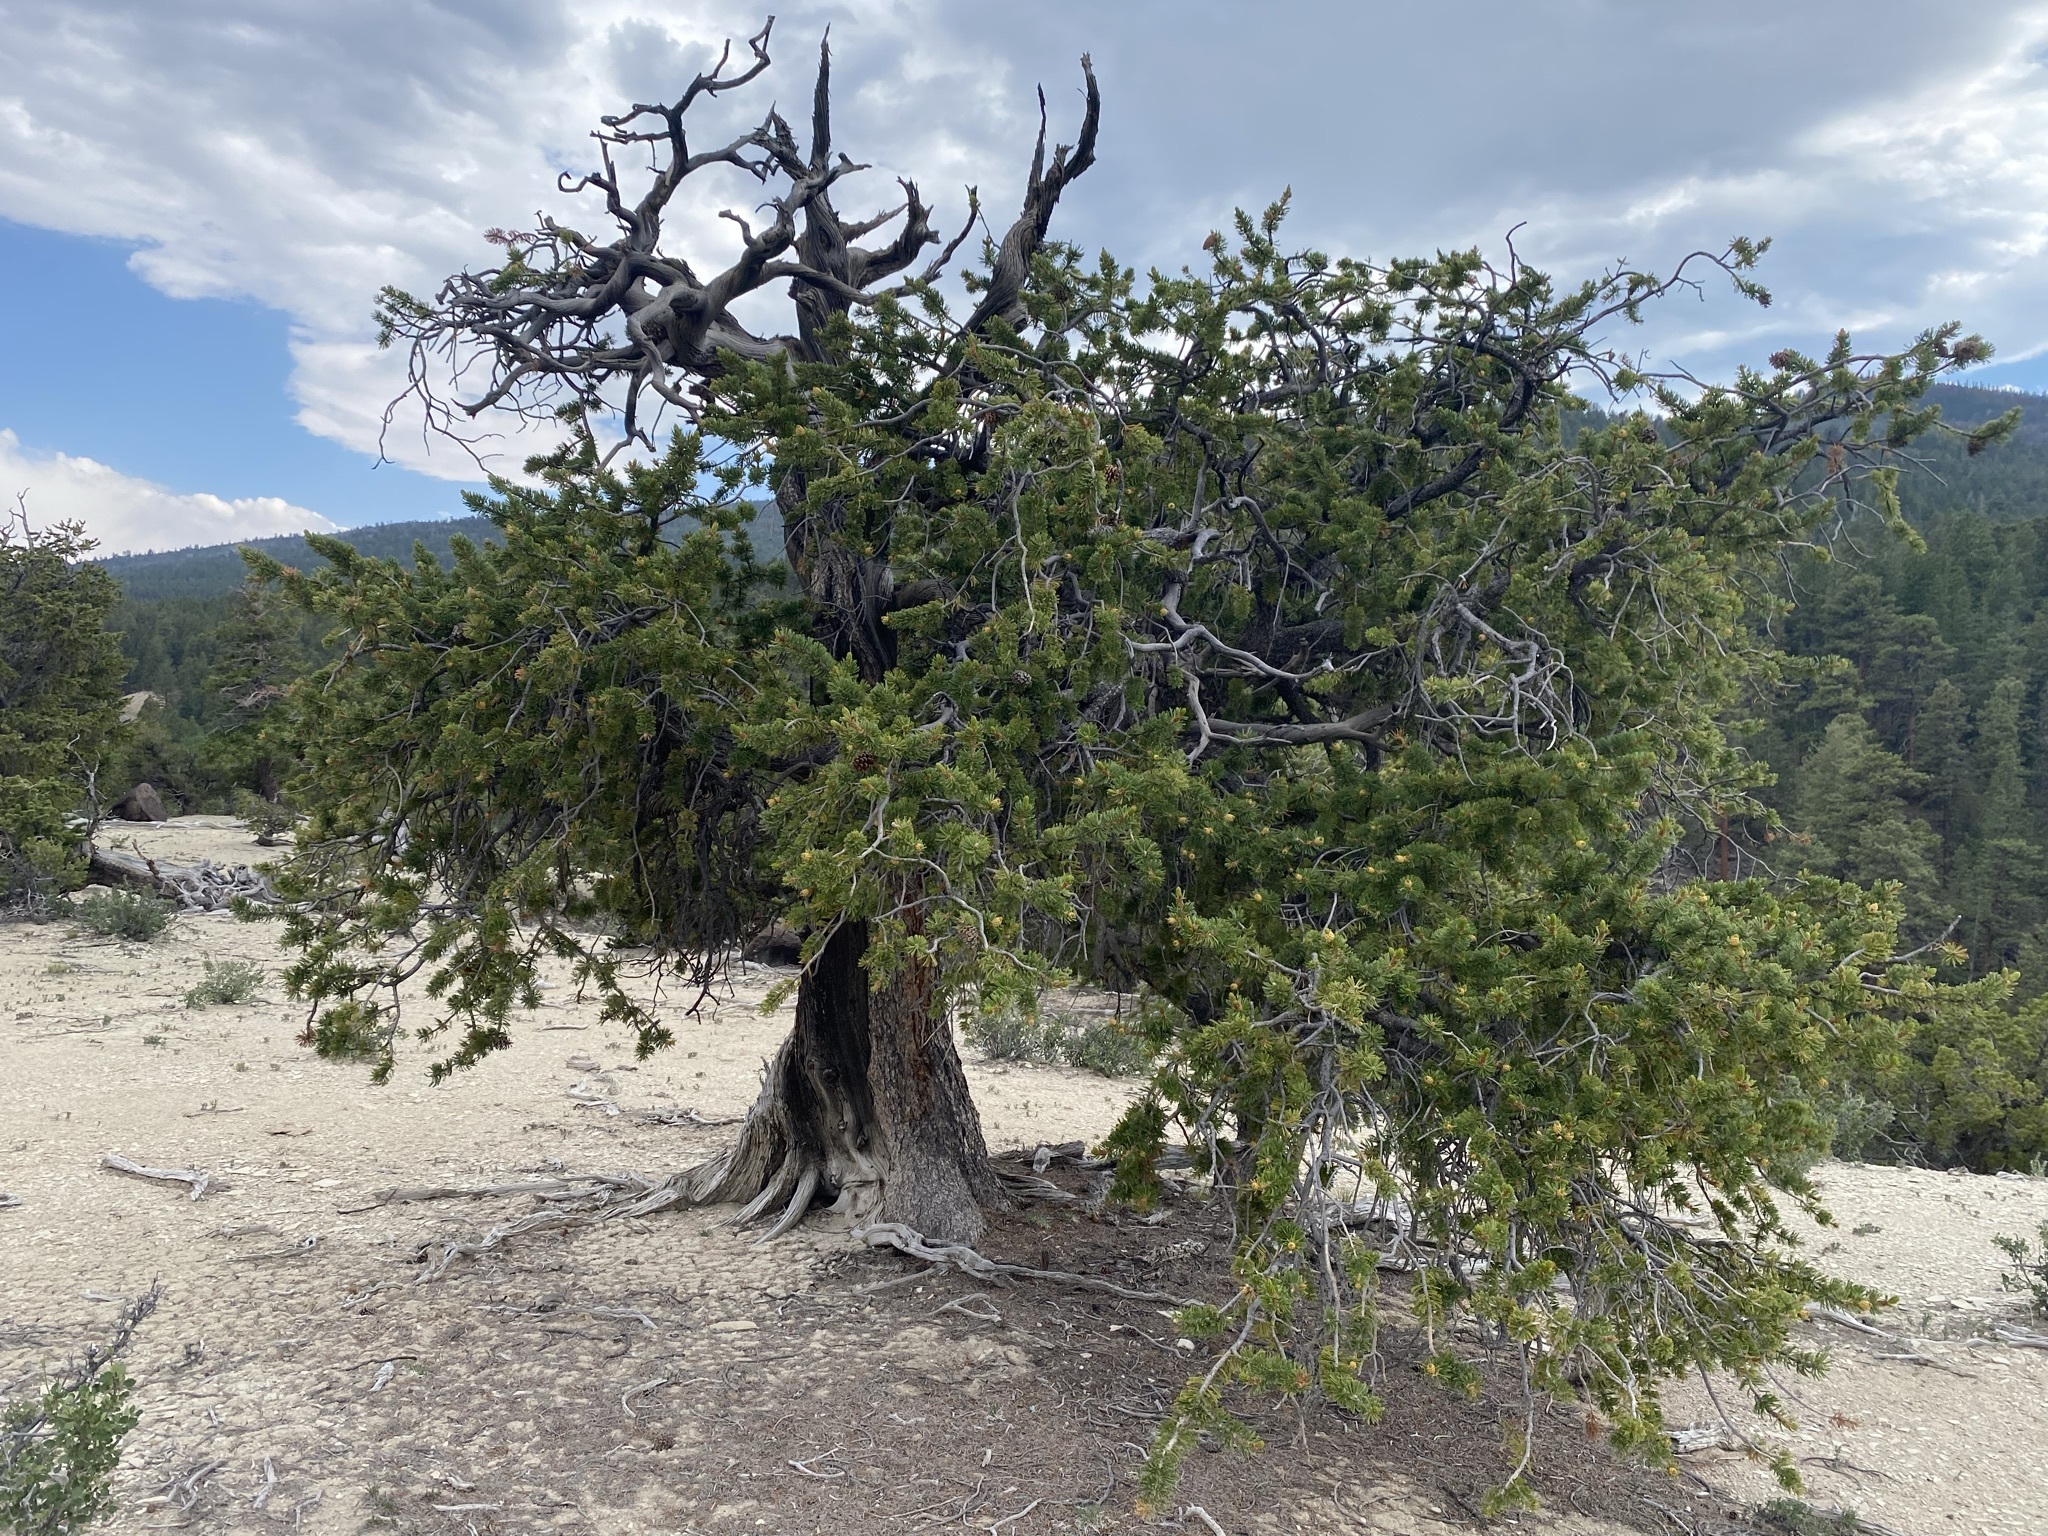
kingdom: Plantae
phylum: Tracheophyta
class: Pinopsida
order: Pinales
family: Pinaceae
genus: Pinus
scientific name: Pinus longaeva
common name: Intermountain bristlecone pine
